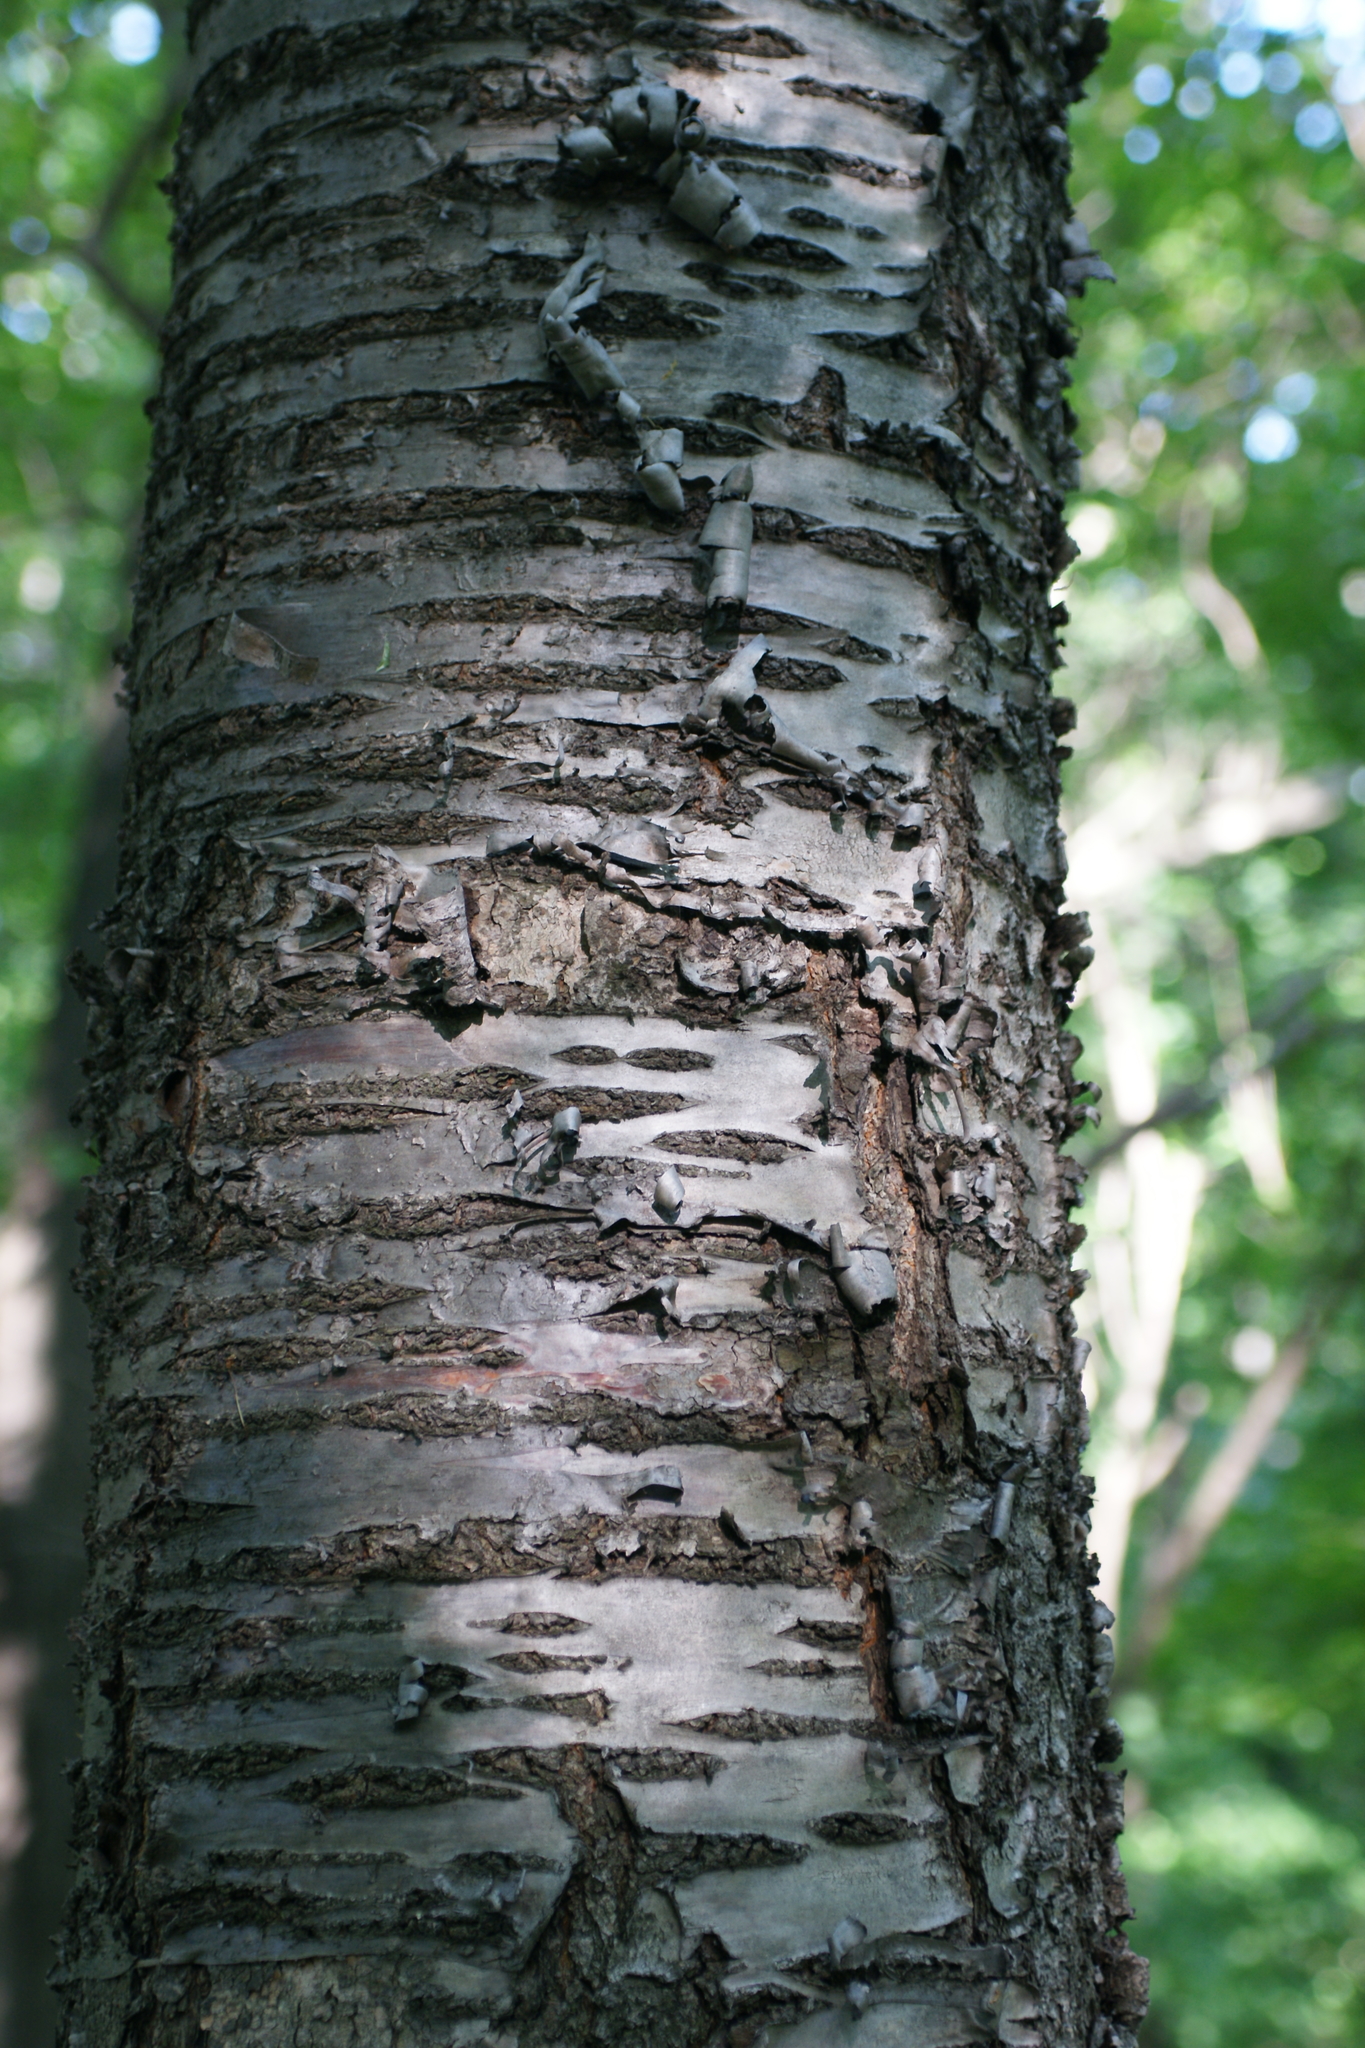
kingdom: Plantae
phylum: Tracheophyta
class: Magnoliopsida
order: Rosales
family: Rosaceae
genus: Prunus
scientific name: Prunus avium
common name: Sweet cherry
